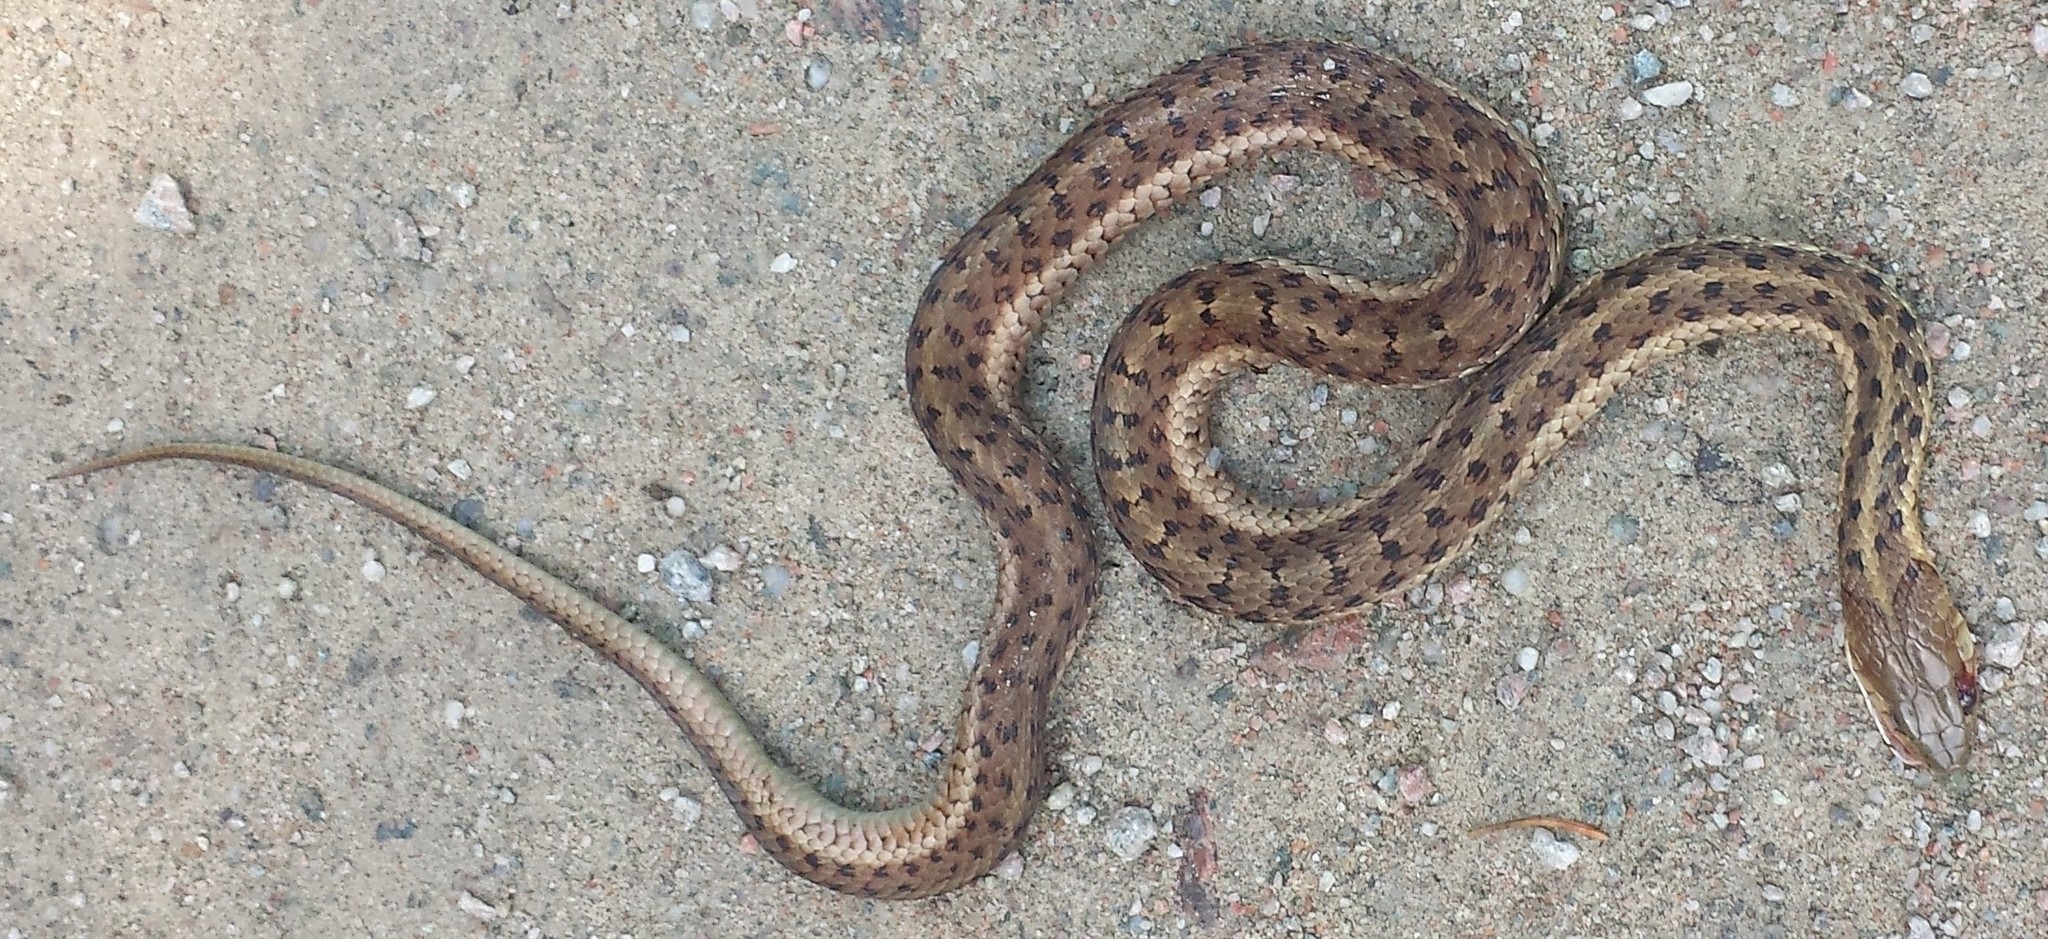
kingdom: Animalia
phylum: Chordata
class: Squamata
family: Colubridae
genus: Thamnophis
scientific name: Thamnophis sirtalis
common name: Common garter snake
